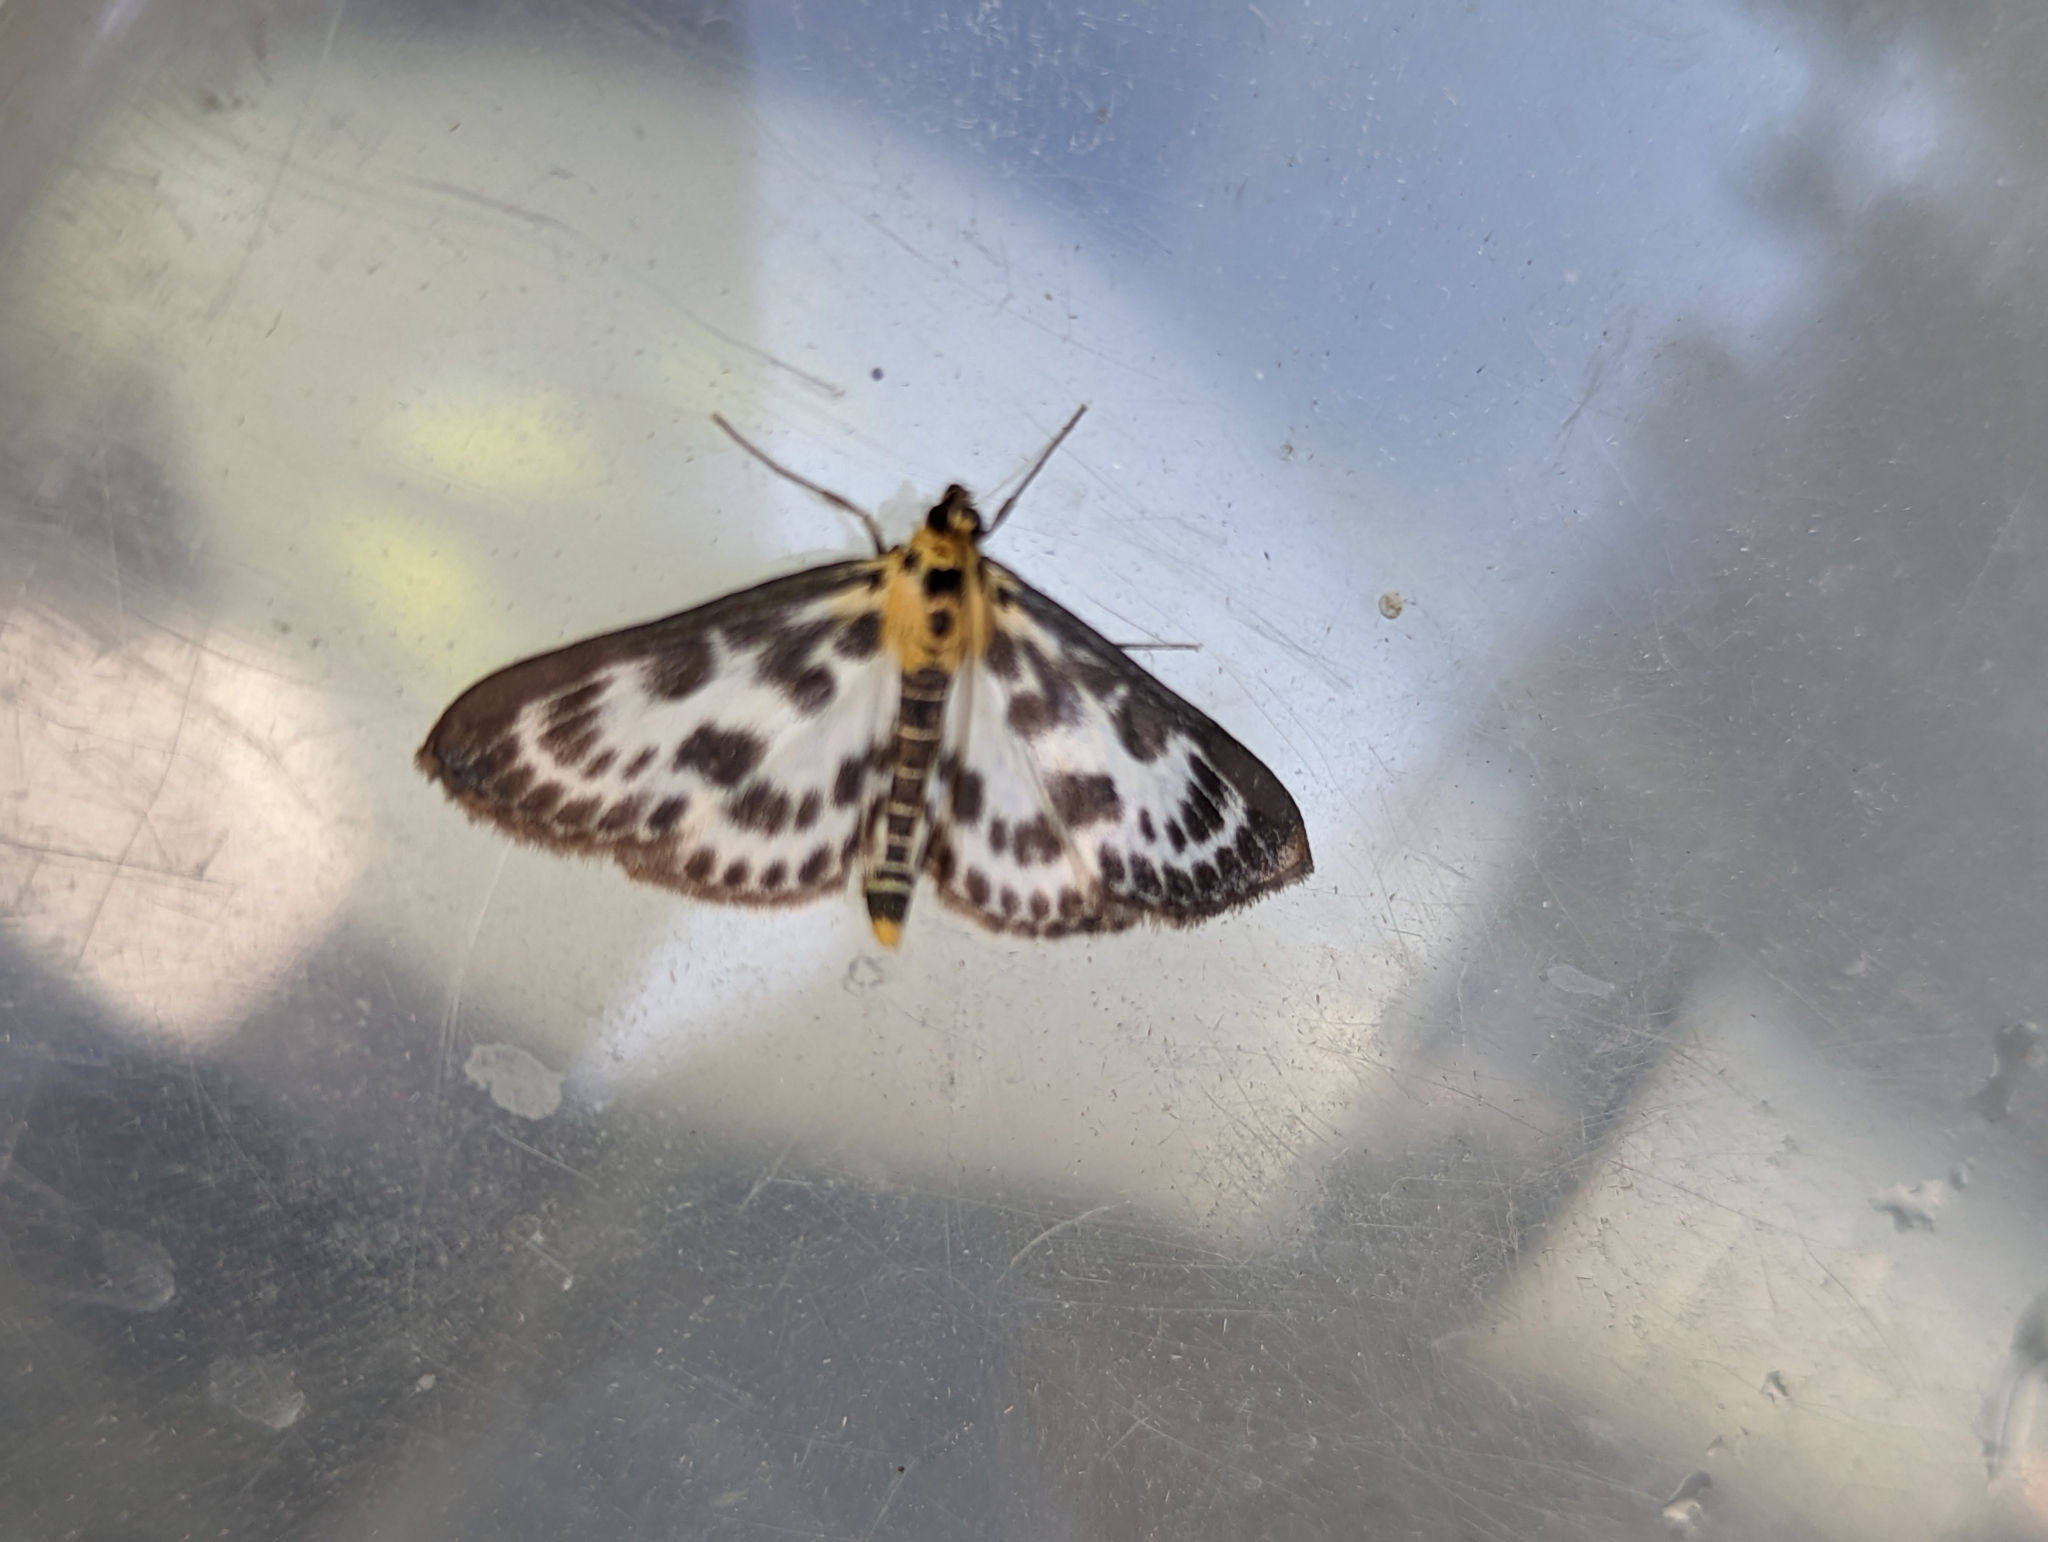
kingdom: Animalia
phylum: Arthropoda
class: Insecta
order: Lepidoptera
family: Crambidae
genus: Anania
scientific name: Anania hortulata
